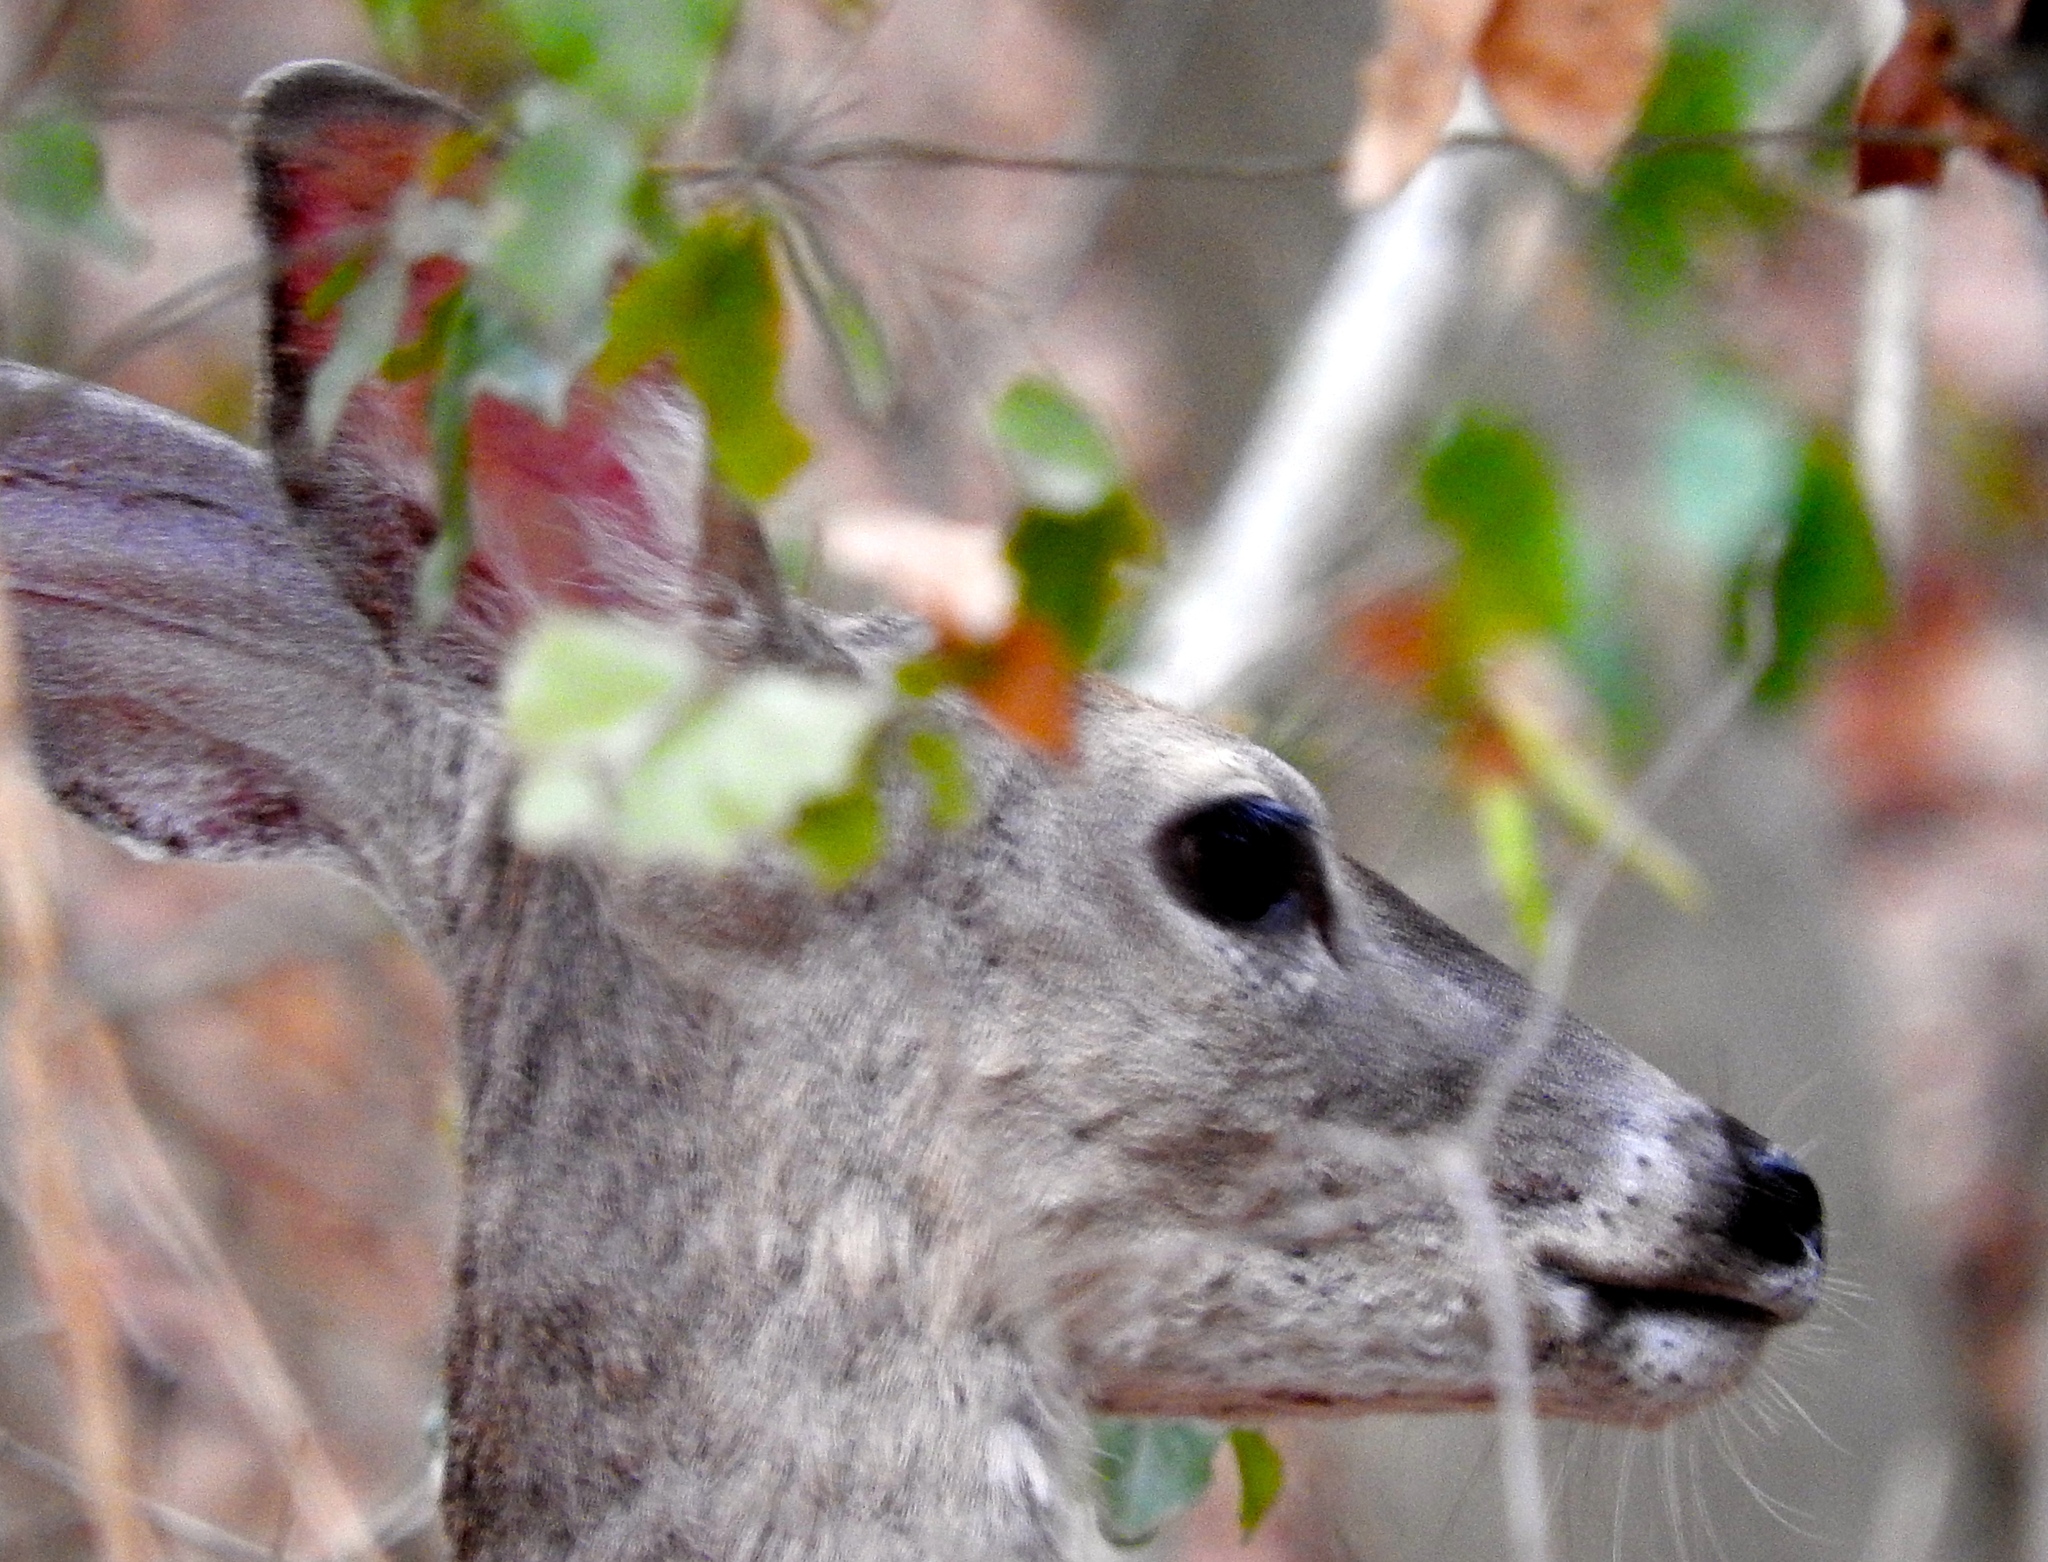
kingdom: Animalia
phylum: Chordata
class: Mammalia
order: Artiodactyla
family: Cervidae
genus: Odocoileus
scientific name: Odocoileus virginianus
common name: White-tailed deer
